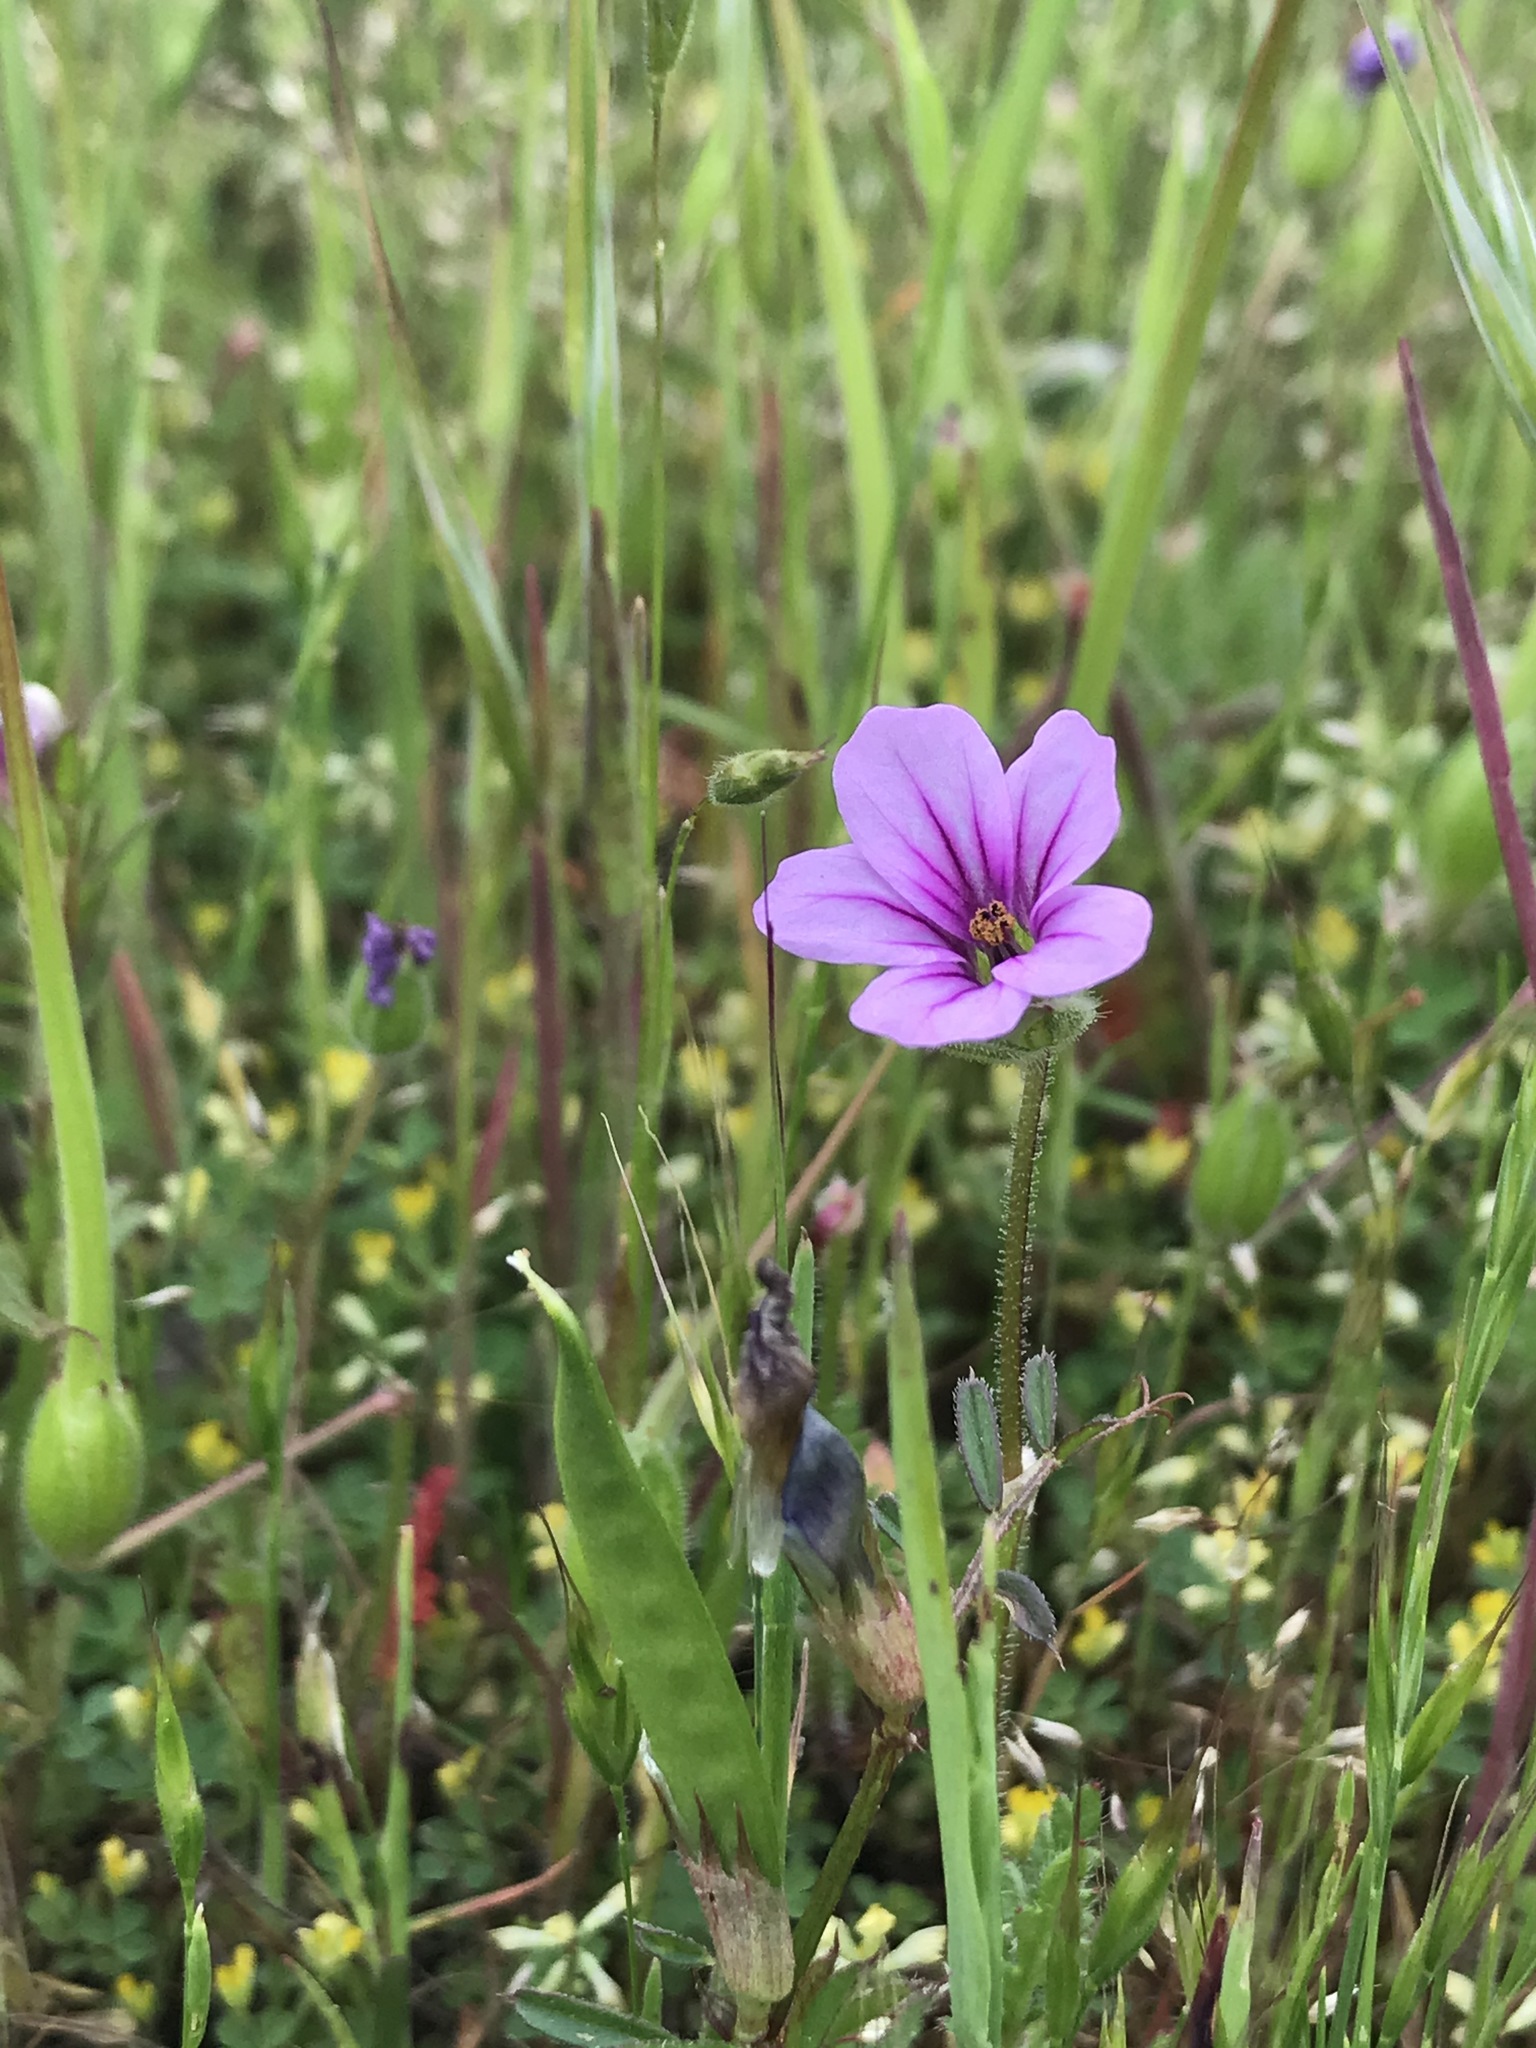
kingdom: Plantae
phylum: Tracheophyta
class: Magnoliopsida
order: Geraniales
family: Geraniaceae
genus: Erodium
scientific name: Erodium botrys
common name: Mediterranean stork's-bill
